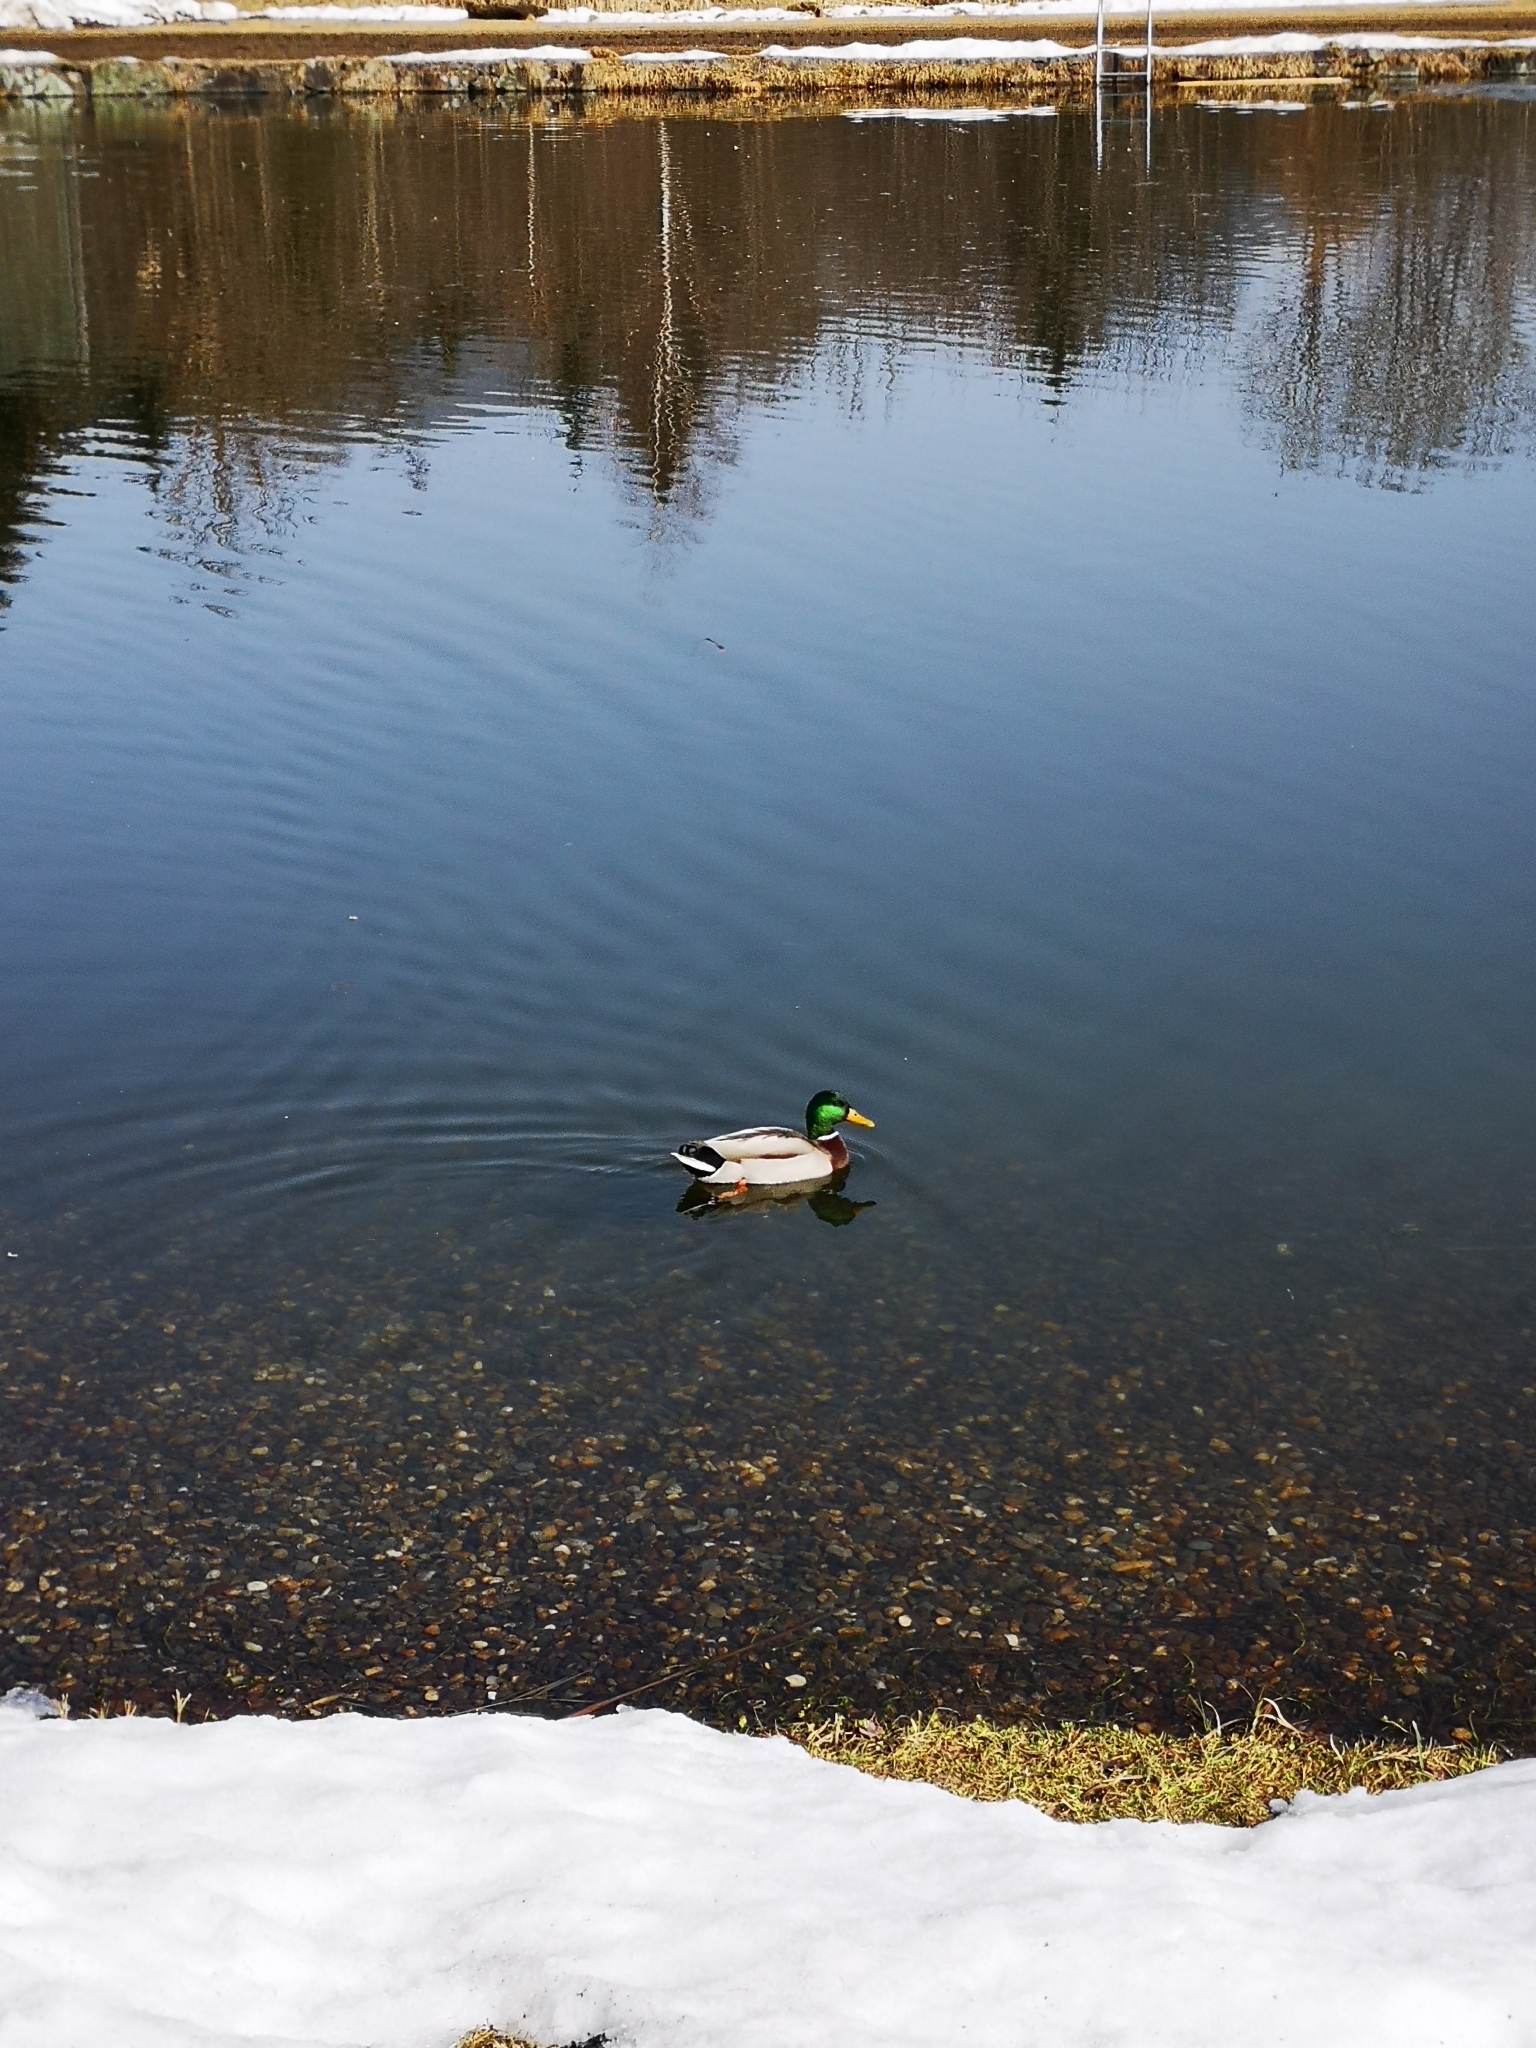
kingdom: Animalia
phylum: Chordata
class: Aves
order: Anseriformes
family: Anatidae
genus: Anas
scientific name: Anas platyrhynchos
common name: Mallard
